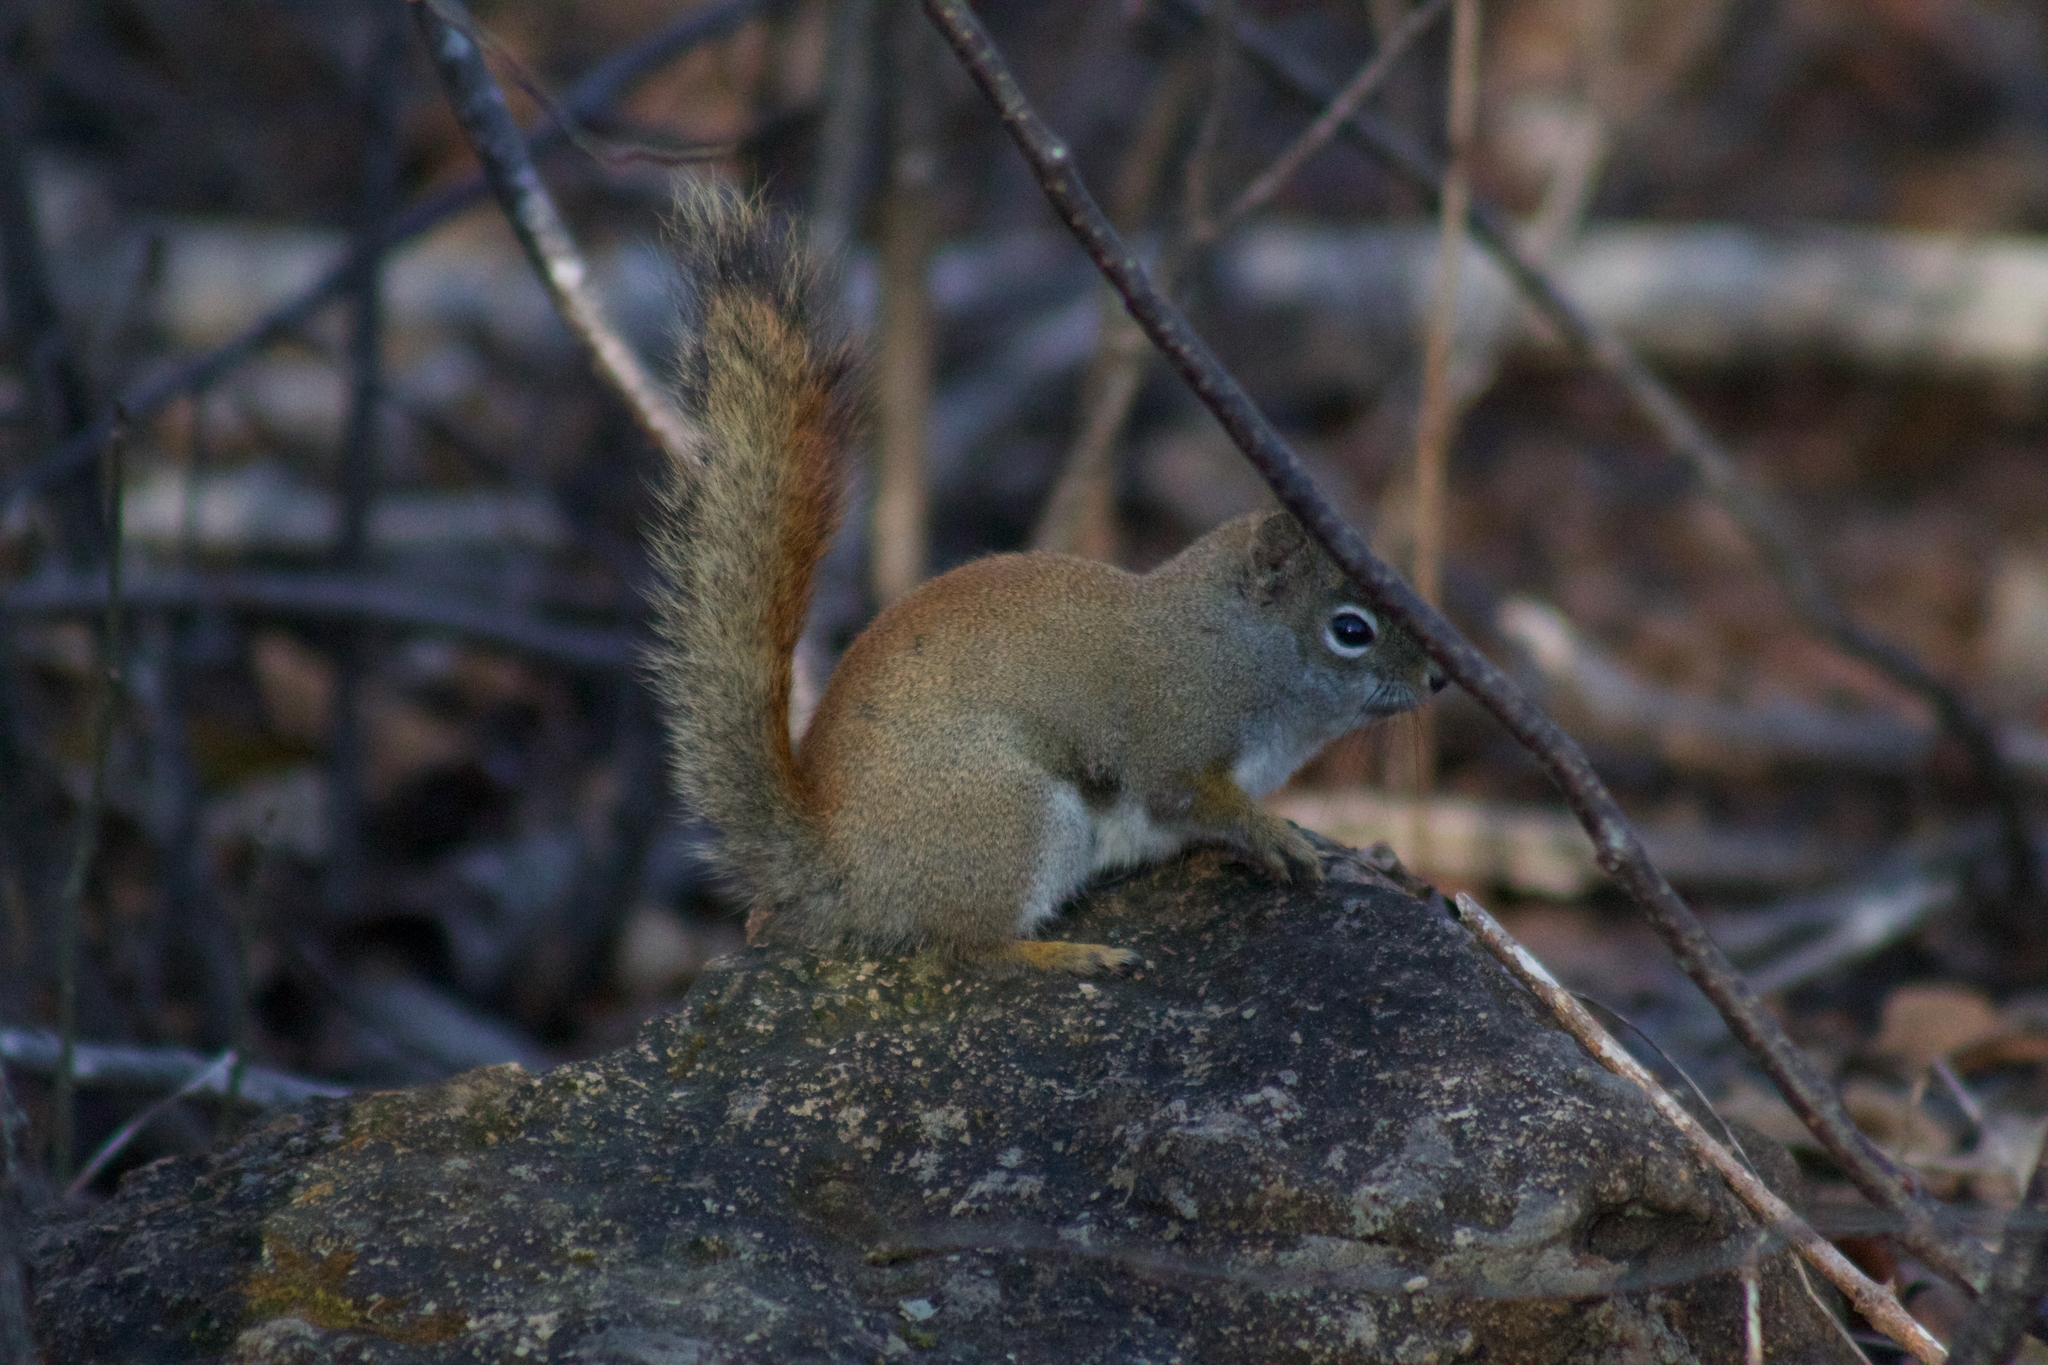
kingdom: Animalia
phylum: Chordata
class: Mammalia
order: Rodentia
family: Sciuridae
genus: Tamiasciurus
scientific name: Tamiasciurus hudsonicus
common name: Red squirrel
